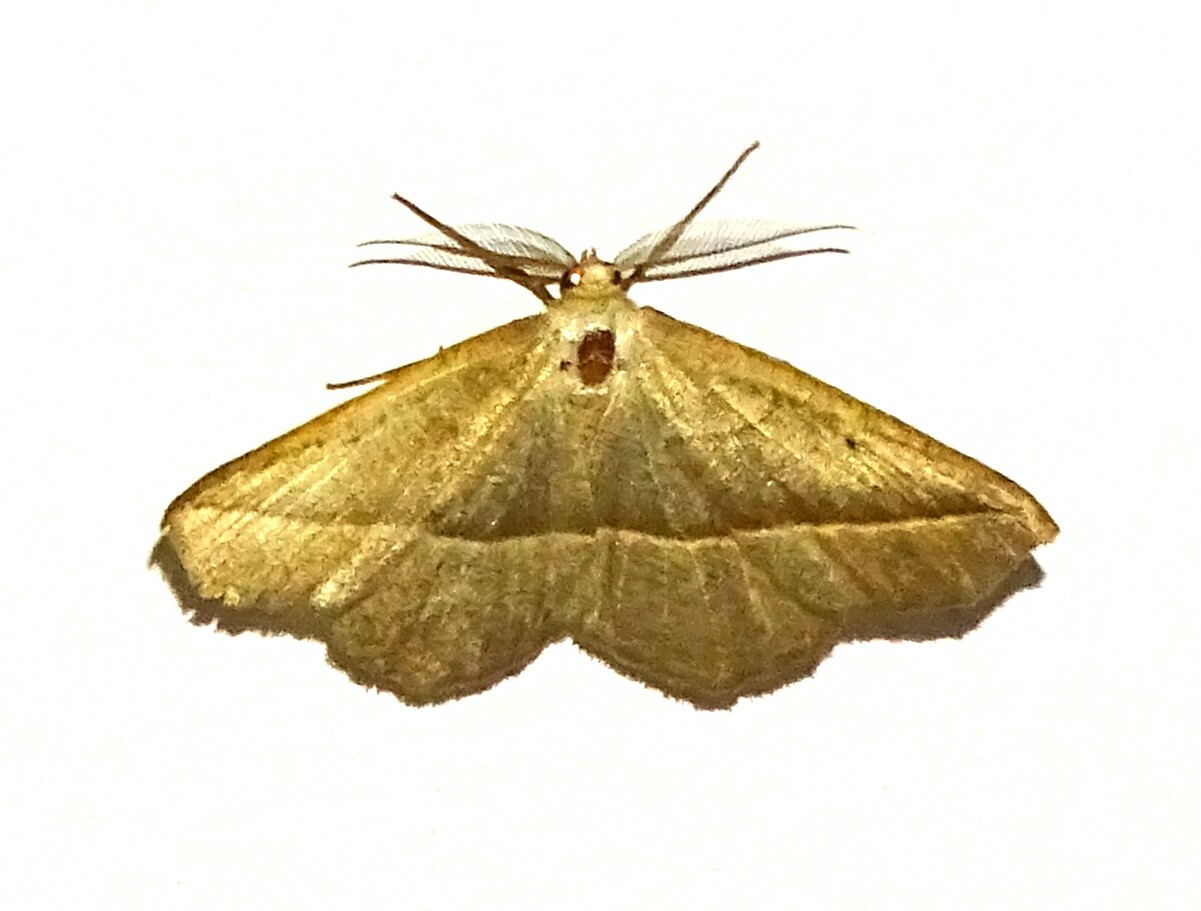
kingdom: Animalia
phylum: Arthropoda
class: Insecta
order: Lepidoptera
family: Geometridae
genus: Eusarca
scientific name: Eusarca confusaria
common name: Confused eusarca
